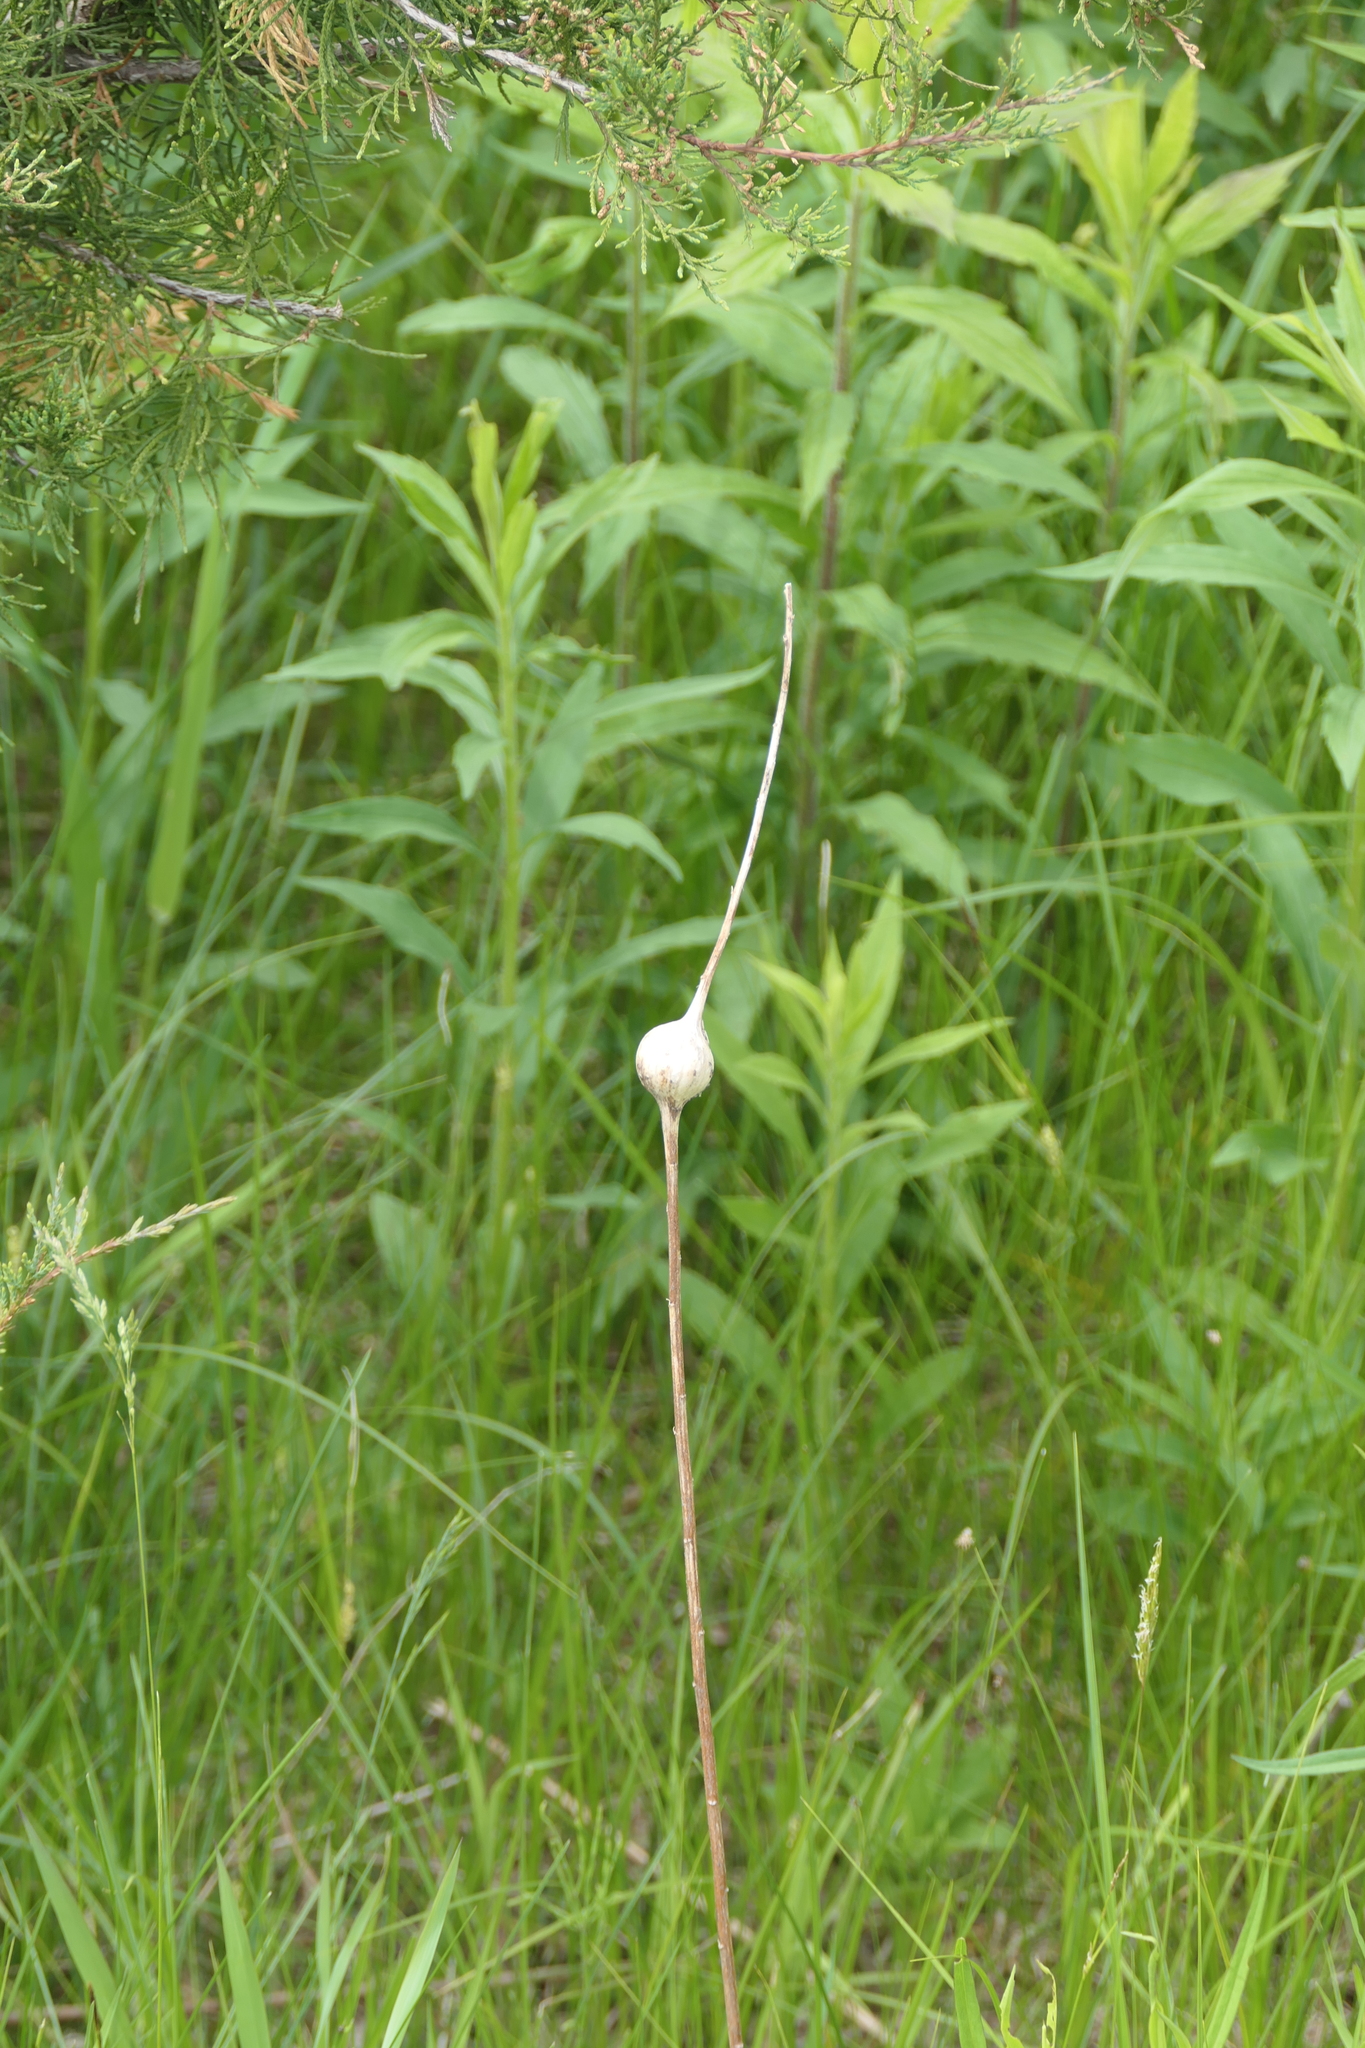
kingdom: Animalia
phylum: Arthropoda
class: Insecta
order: Diptera
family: Tephritidae
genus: Eurosta
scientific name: Eurosta solidaginis
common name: Goldenrod gall fly
